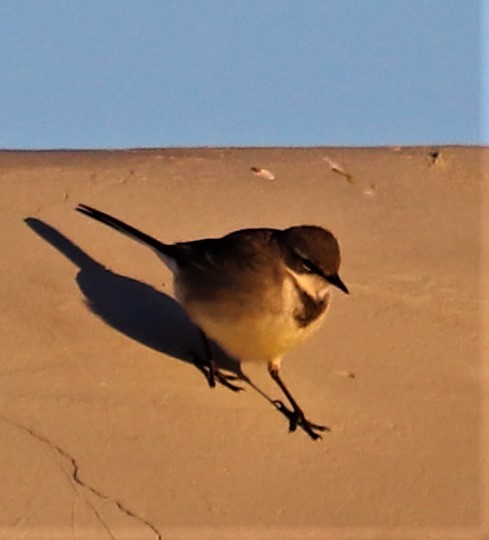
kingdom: Animalia
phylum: Chordata
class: Aves
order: Passeriformes
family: Motacillidae
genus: Motacilla
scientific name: Motacilla capensis
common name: Cape wagtail
